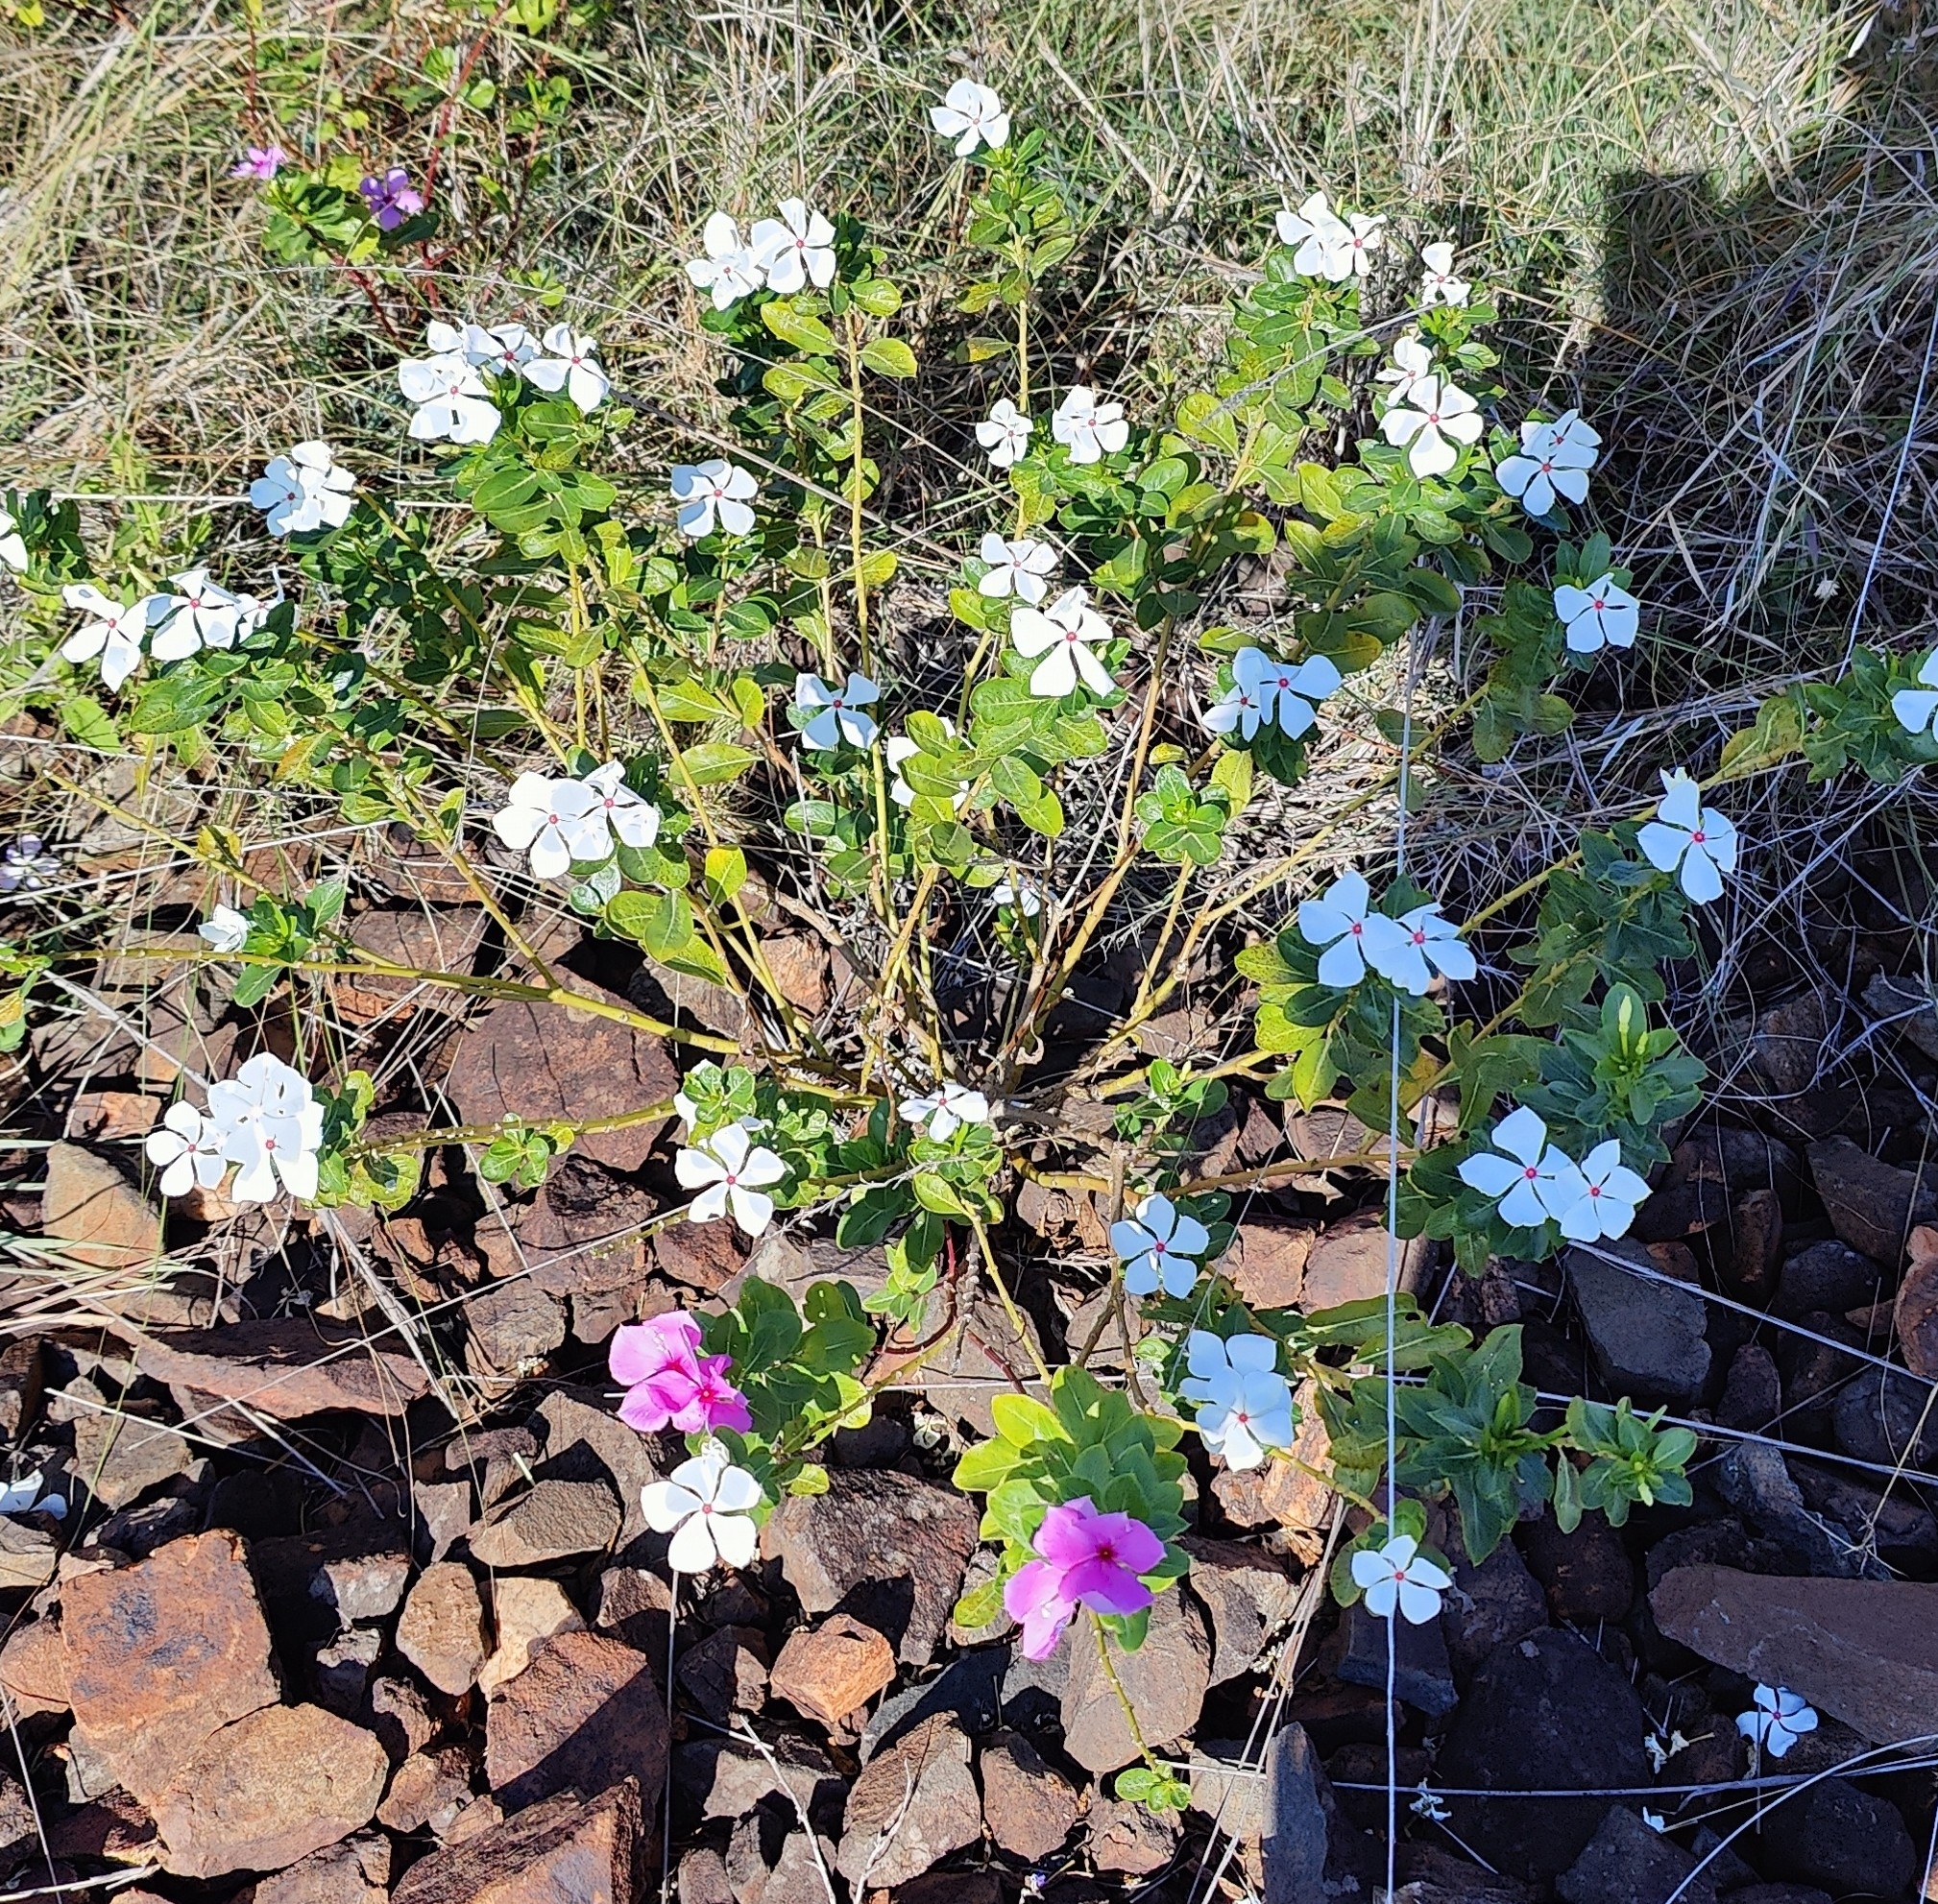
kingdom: Plantae
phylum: Tracheophyta
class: Magnoliopsida
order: Gentianales
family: Apocynaceae
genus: Catharanthus
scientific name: Catharanthus roseus
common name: Madagascar periwinkle
